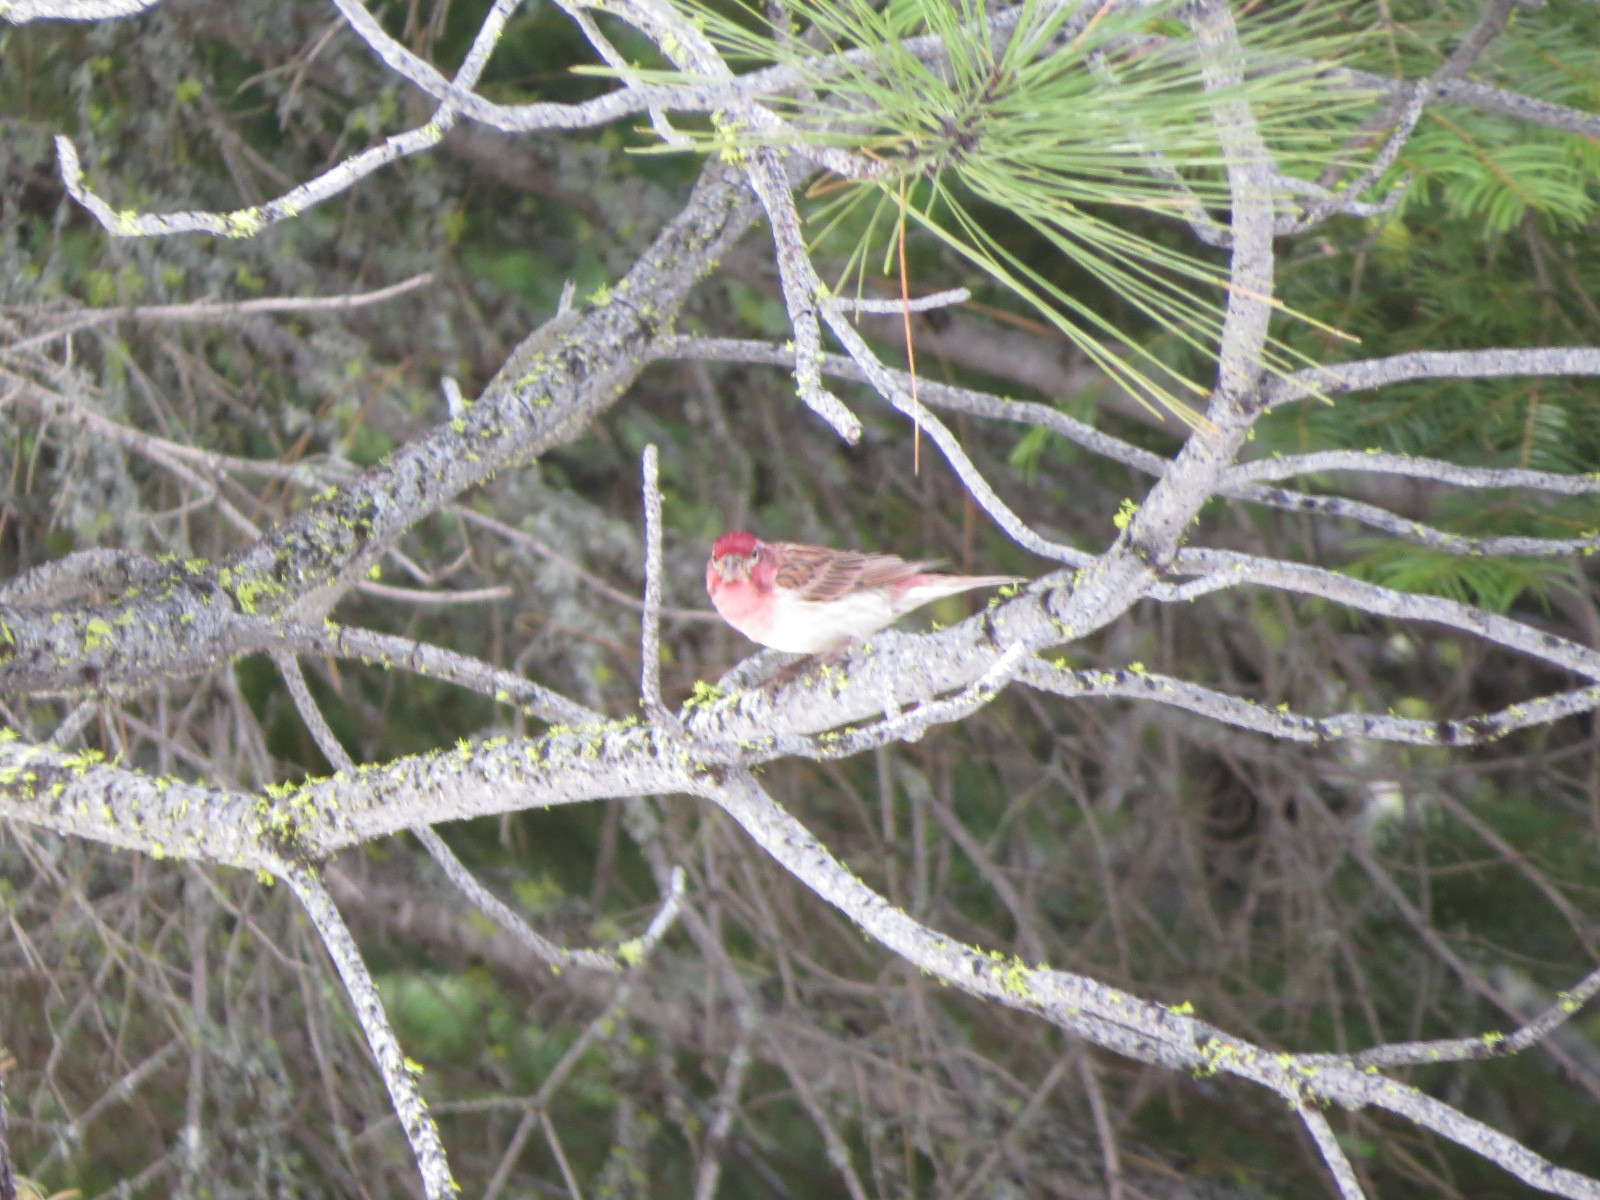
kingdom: Animalia
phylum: Chordata
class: Aves
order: Passeriformes
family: Fringillidae
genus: Haemorhous
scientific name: Haemorhous cassinii
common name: Cassin's finch
